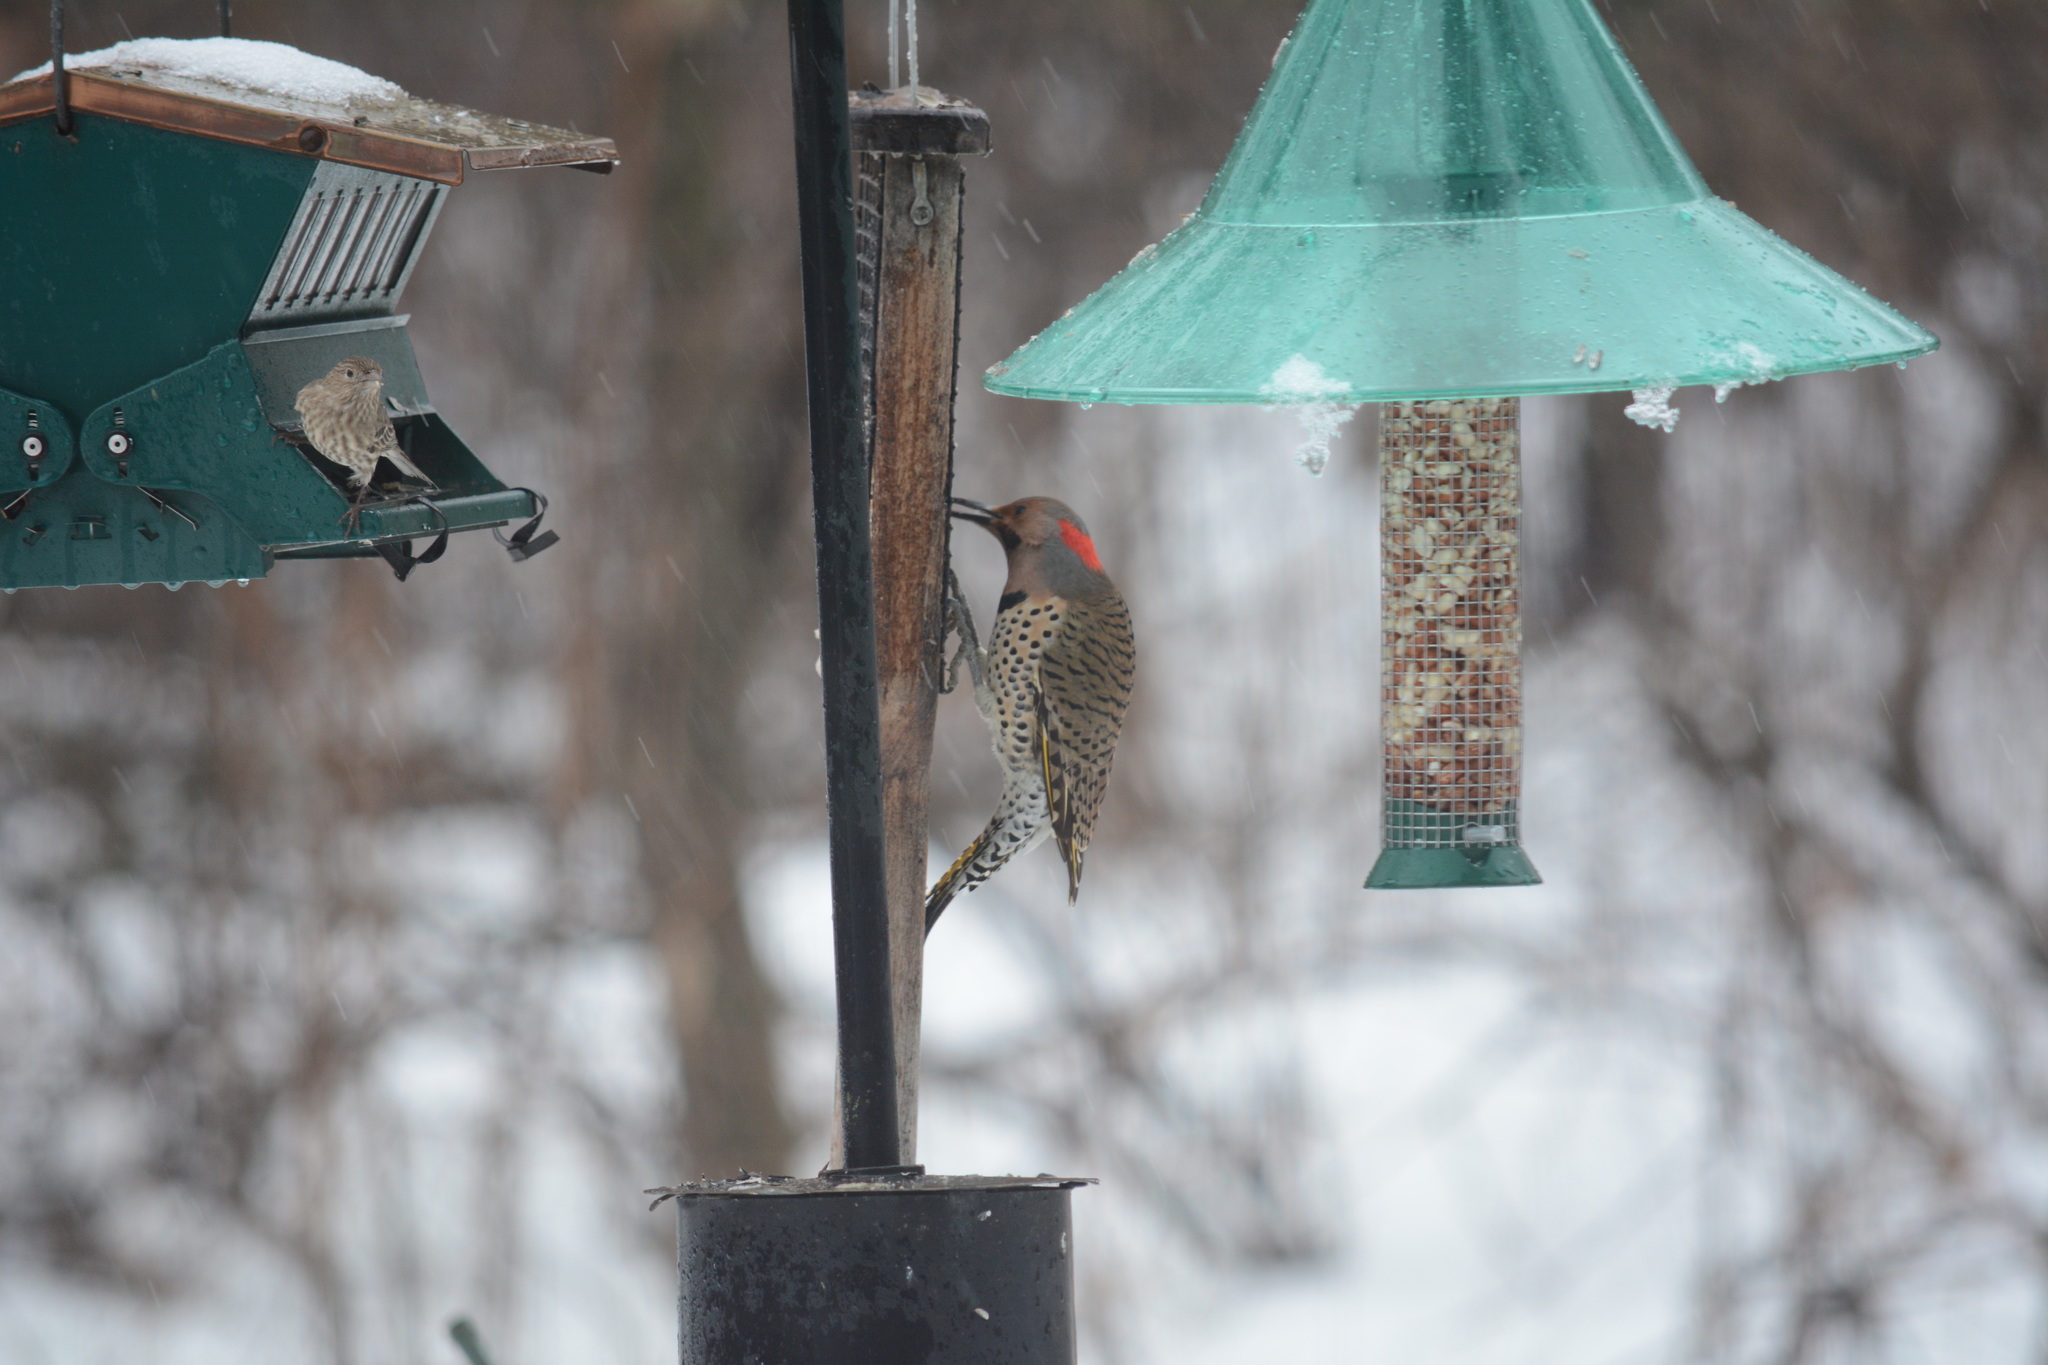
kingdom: Animalia
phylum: Chordata
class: Aves
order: Piciformes
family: Picidae
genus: Colaptes
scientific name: Colaptes auratus
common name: Northern flicker
